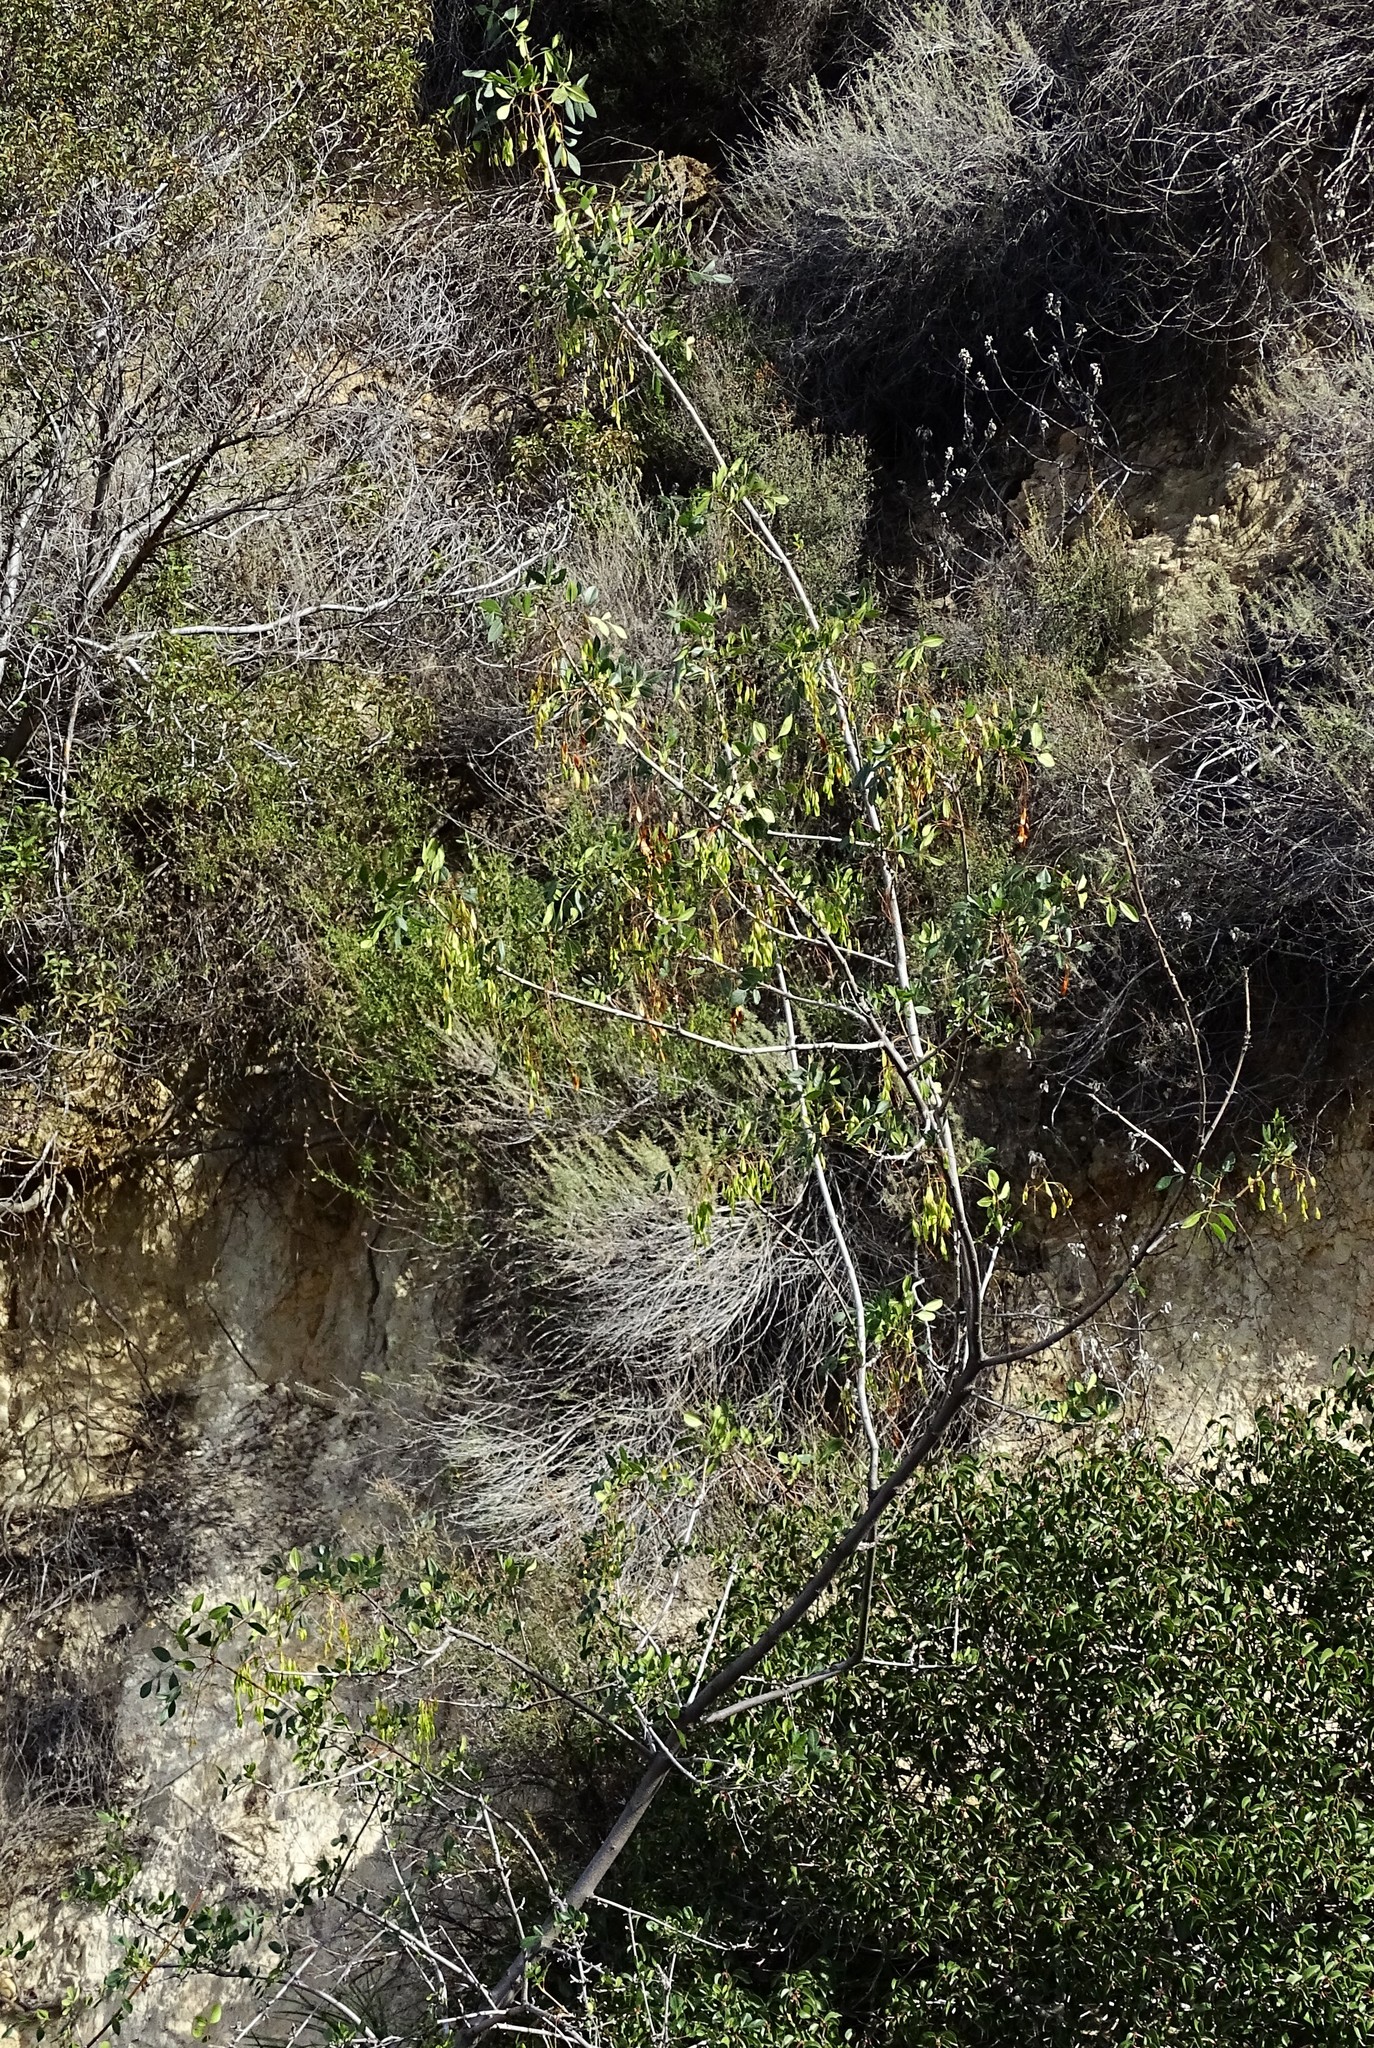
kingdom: Plantae
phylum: Tracheophyta
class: Magnoliopsida
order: Lamiales
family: Oleaceae
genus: Fraxinus
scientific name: Fraxinus dipetala
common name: California ash
